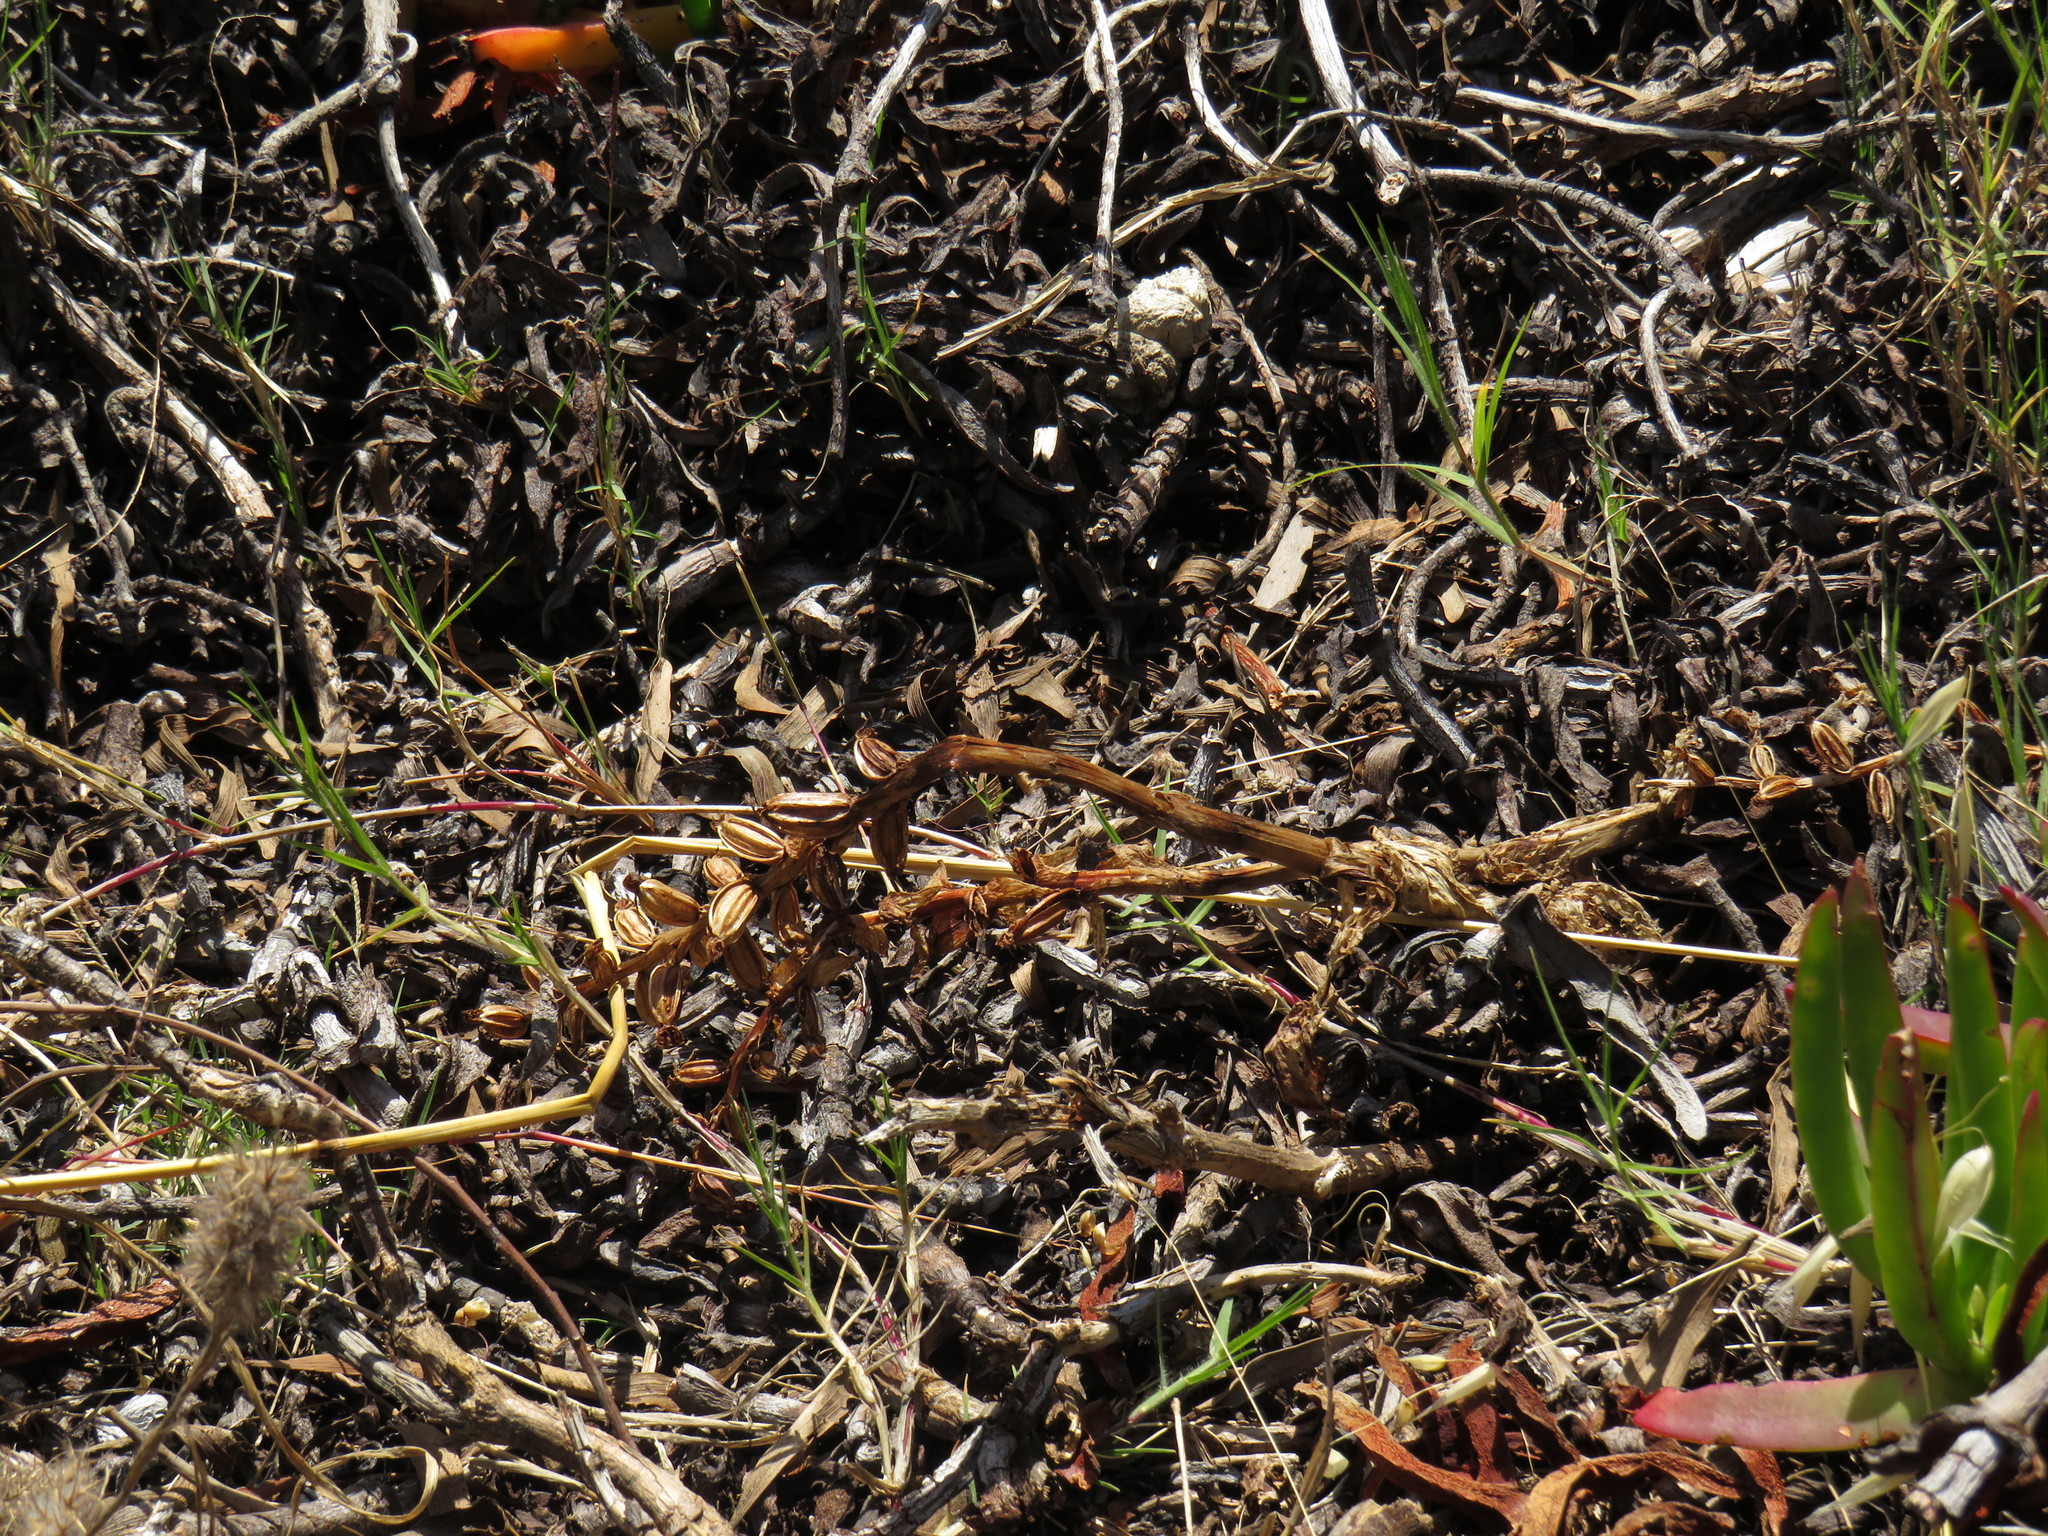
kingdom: Plantae
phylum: Tracheophyta
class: Liliopsida
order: Asparagales
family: Orchidaceae
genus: Satyrium
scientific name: Satyrium odorum
